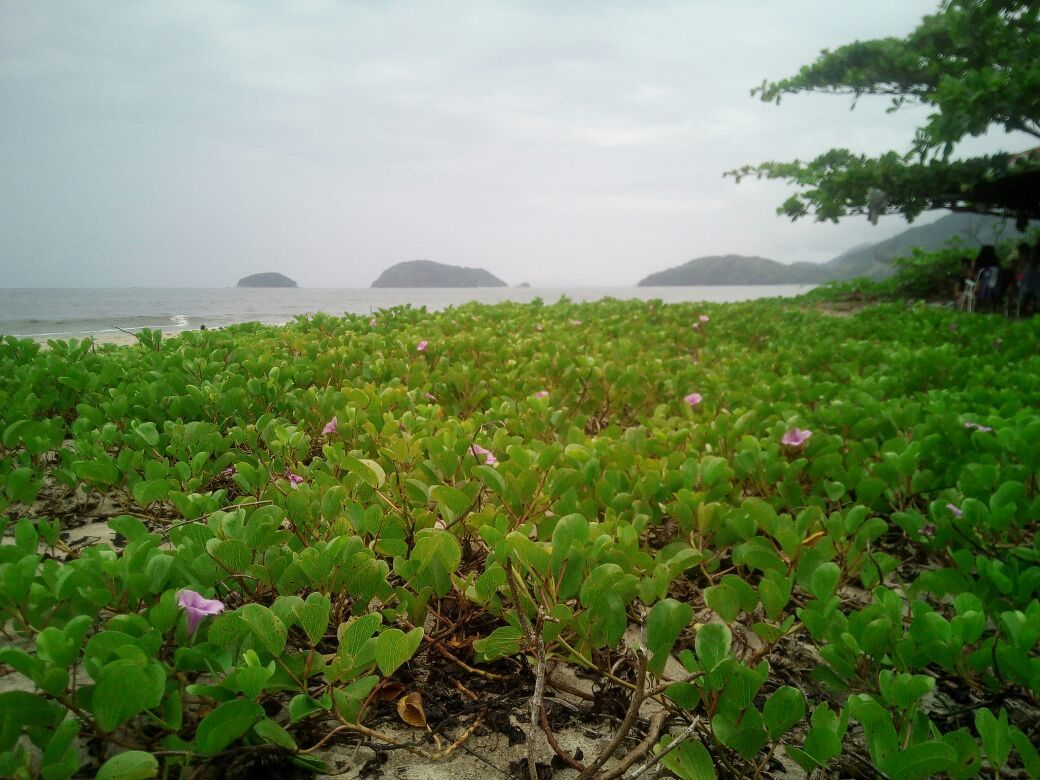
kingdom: Plantae
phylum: Tracheophyta
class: Magnoliopsida
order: Solanales
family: Convolvulaceae
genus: Ipomoea
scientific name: Ipomoea pes-caprae
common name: Beach morning glory
